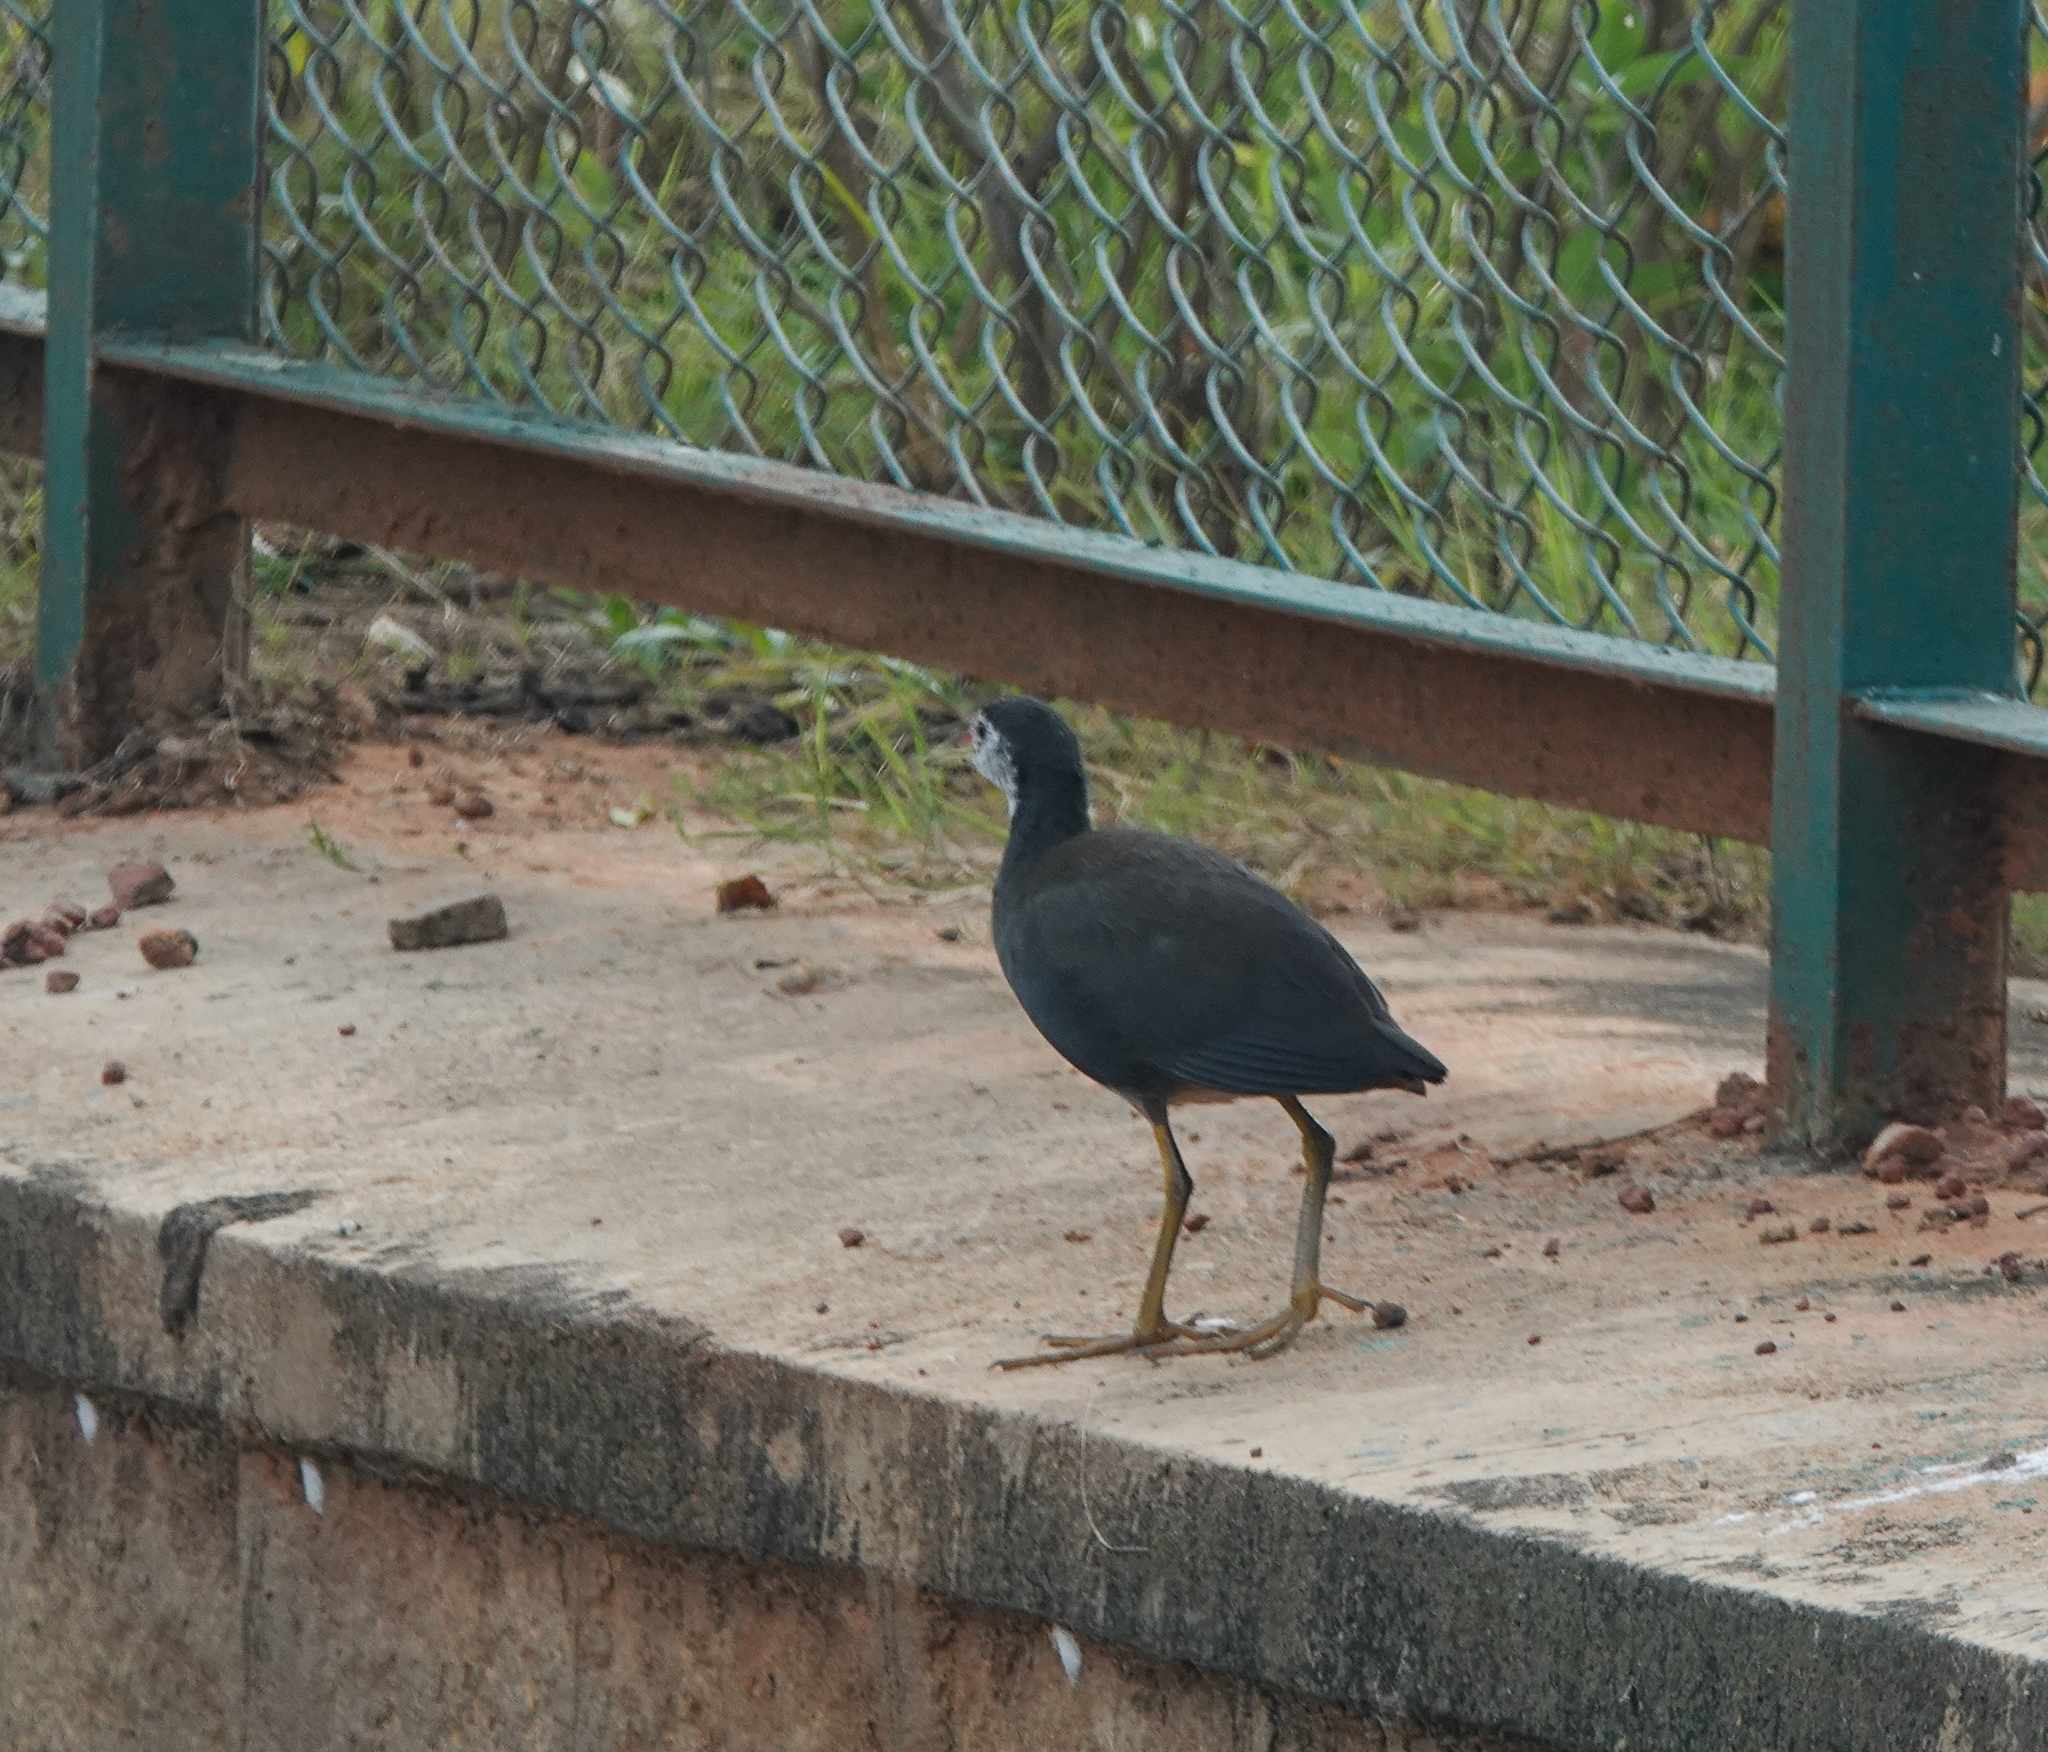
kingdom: Animalia
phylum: Chordata
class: Aves
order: Gruiformes
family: Rallidae
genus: Amaurornis
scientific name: Amaurornis phoenicurus
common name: White-breasted waterhen
